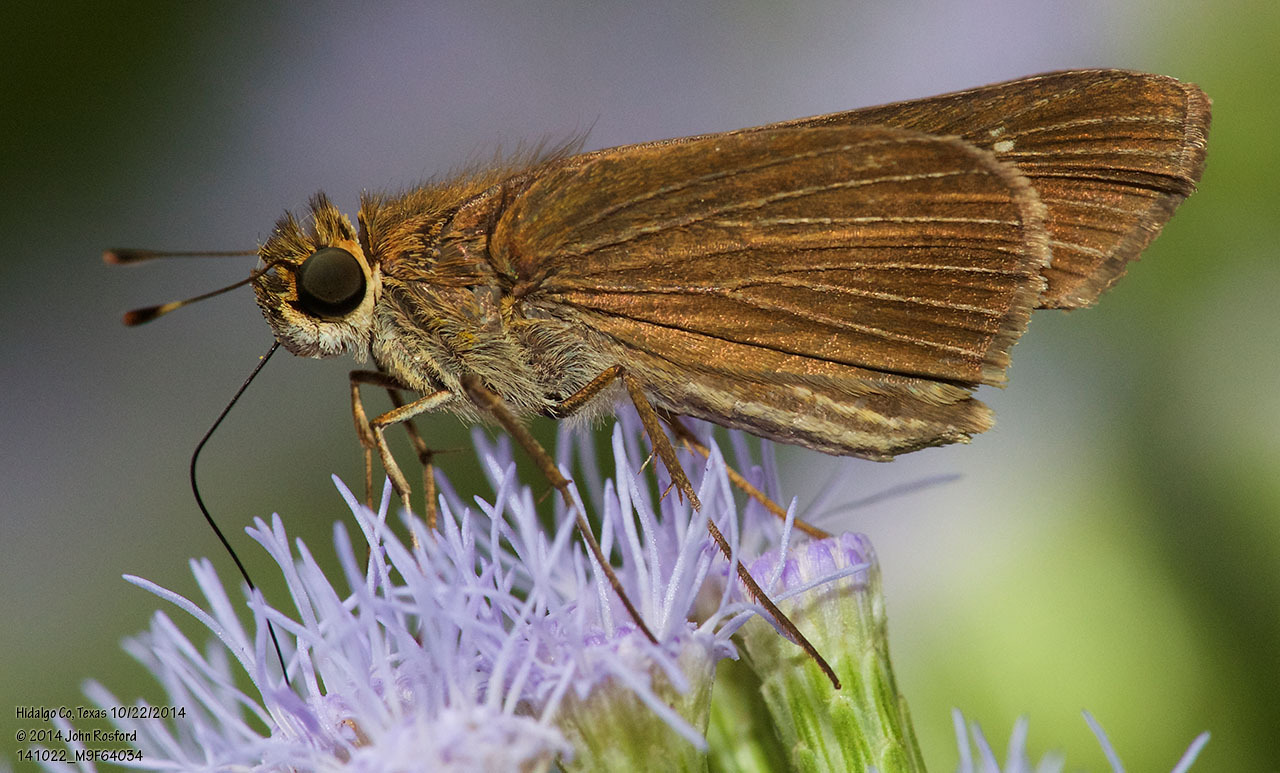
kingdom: Animalia
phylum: Arthropoda
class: Insecta
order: Lepidoptera
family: Hesperiidae
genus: Panoquina
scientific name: Panoquina ocola
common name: Ocola skipper
